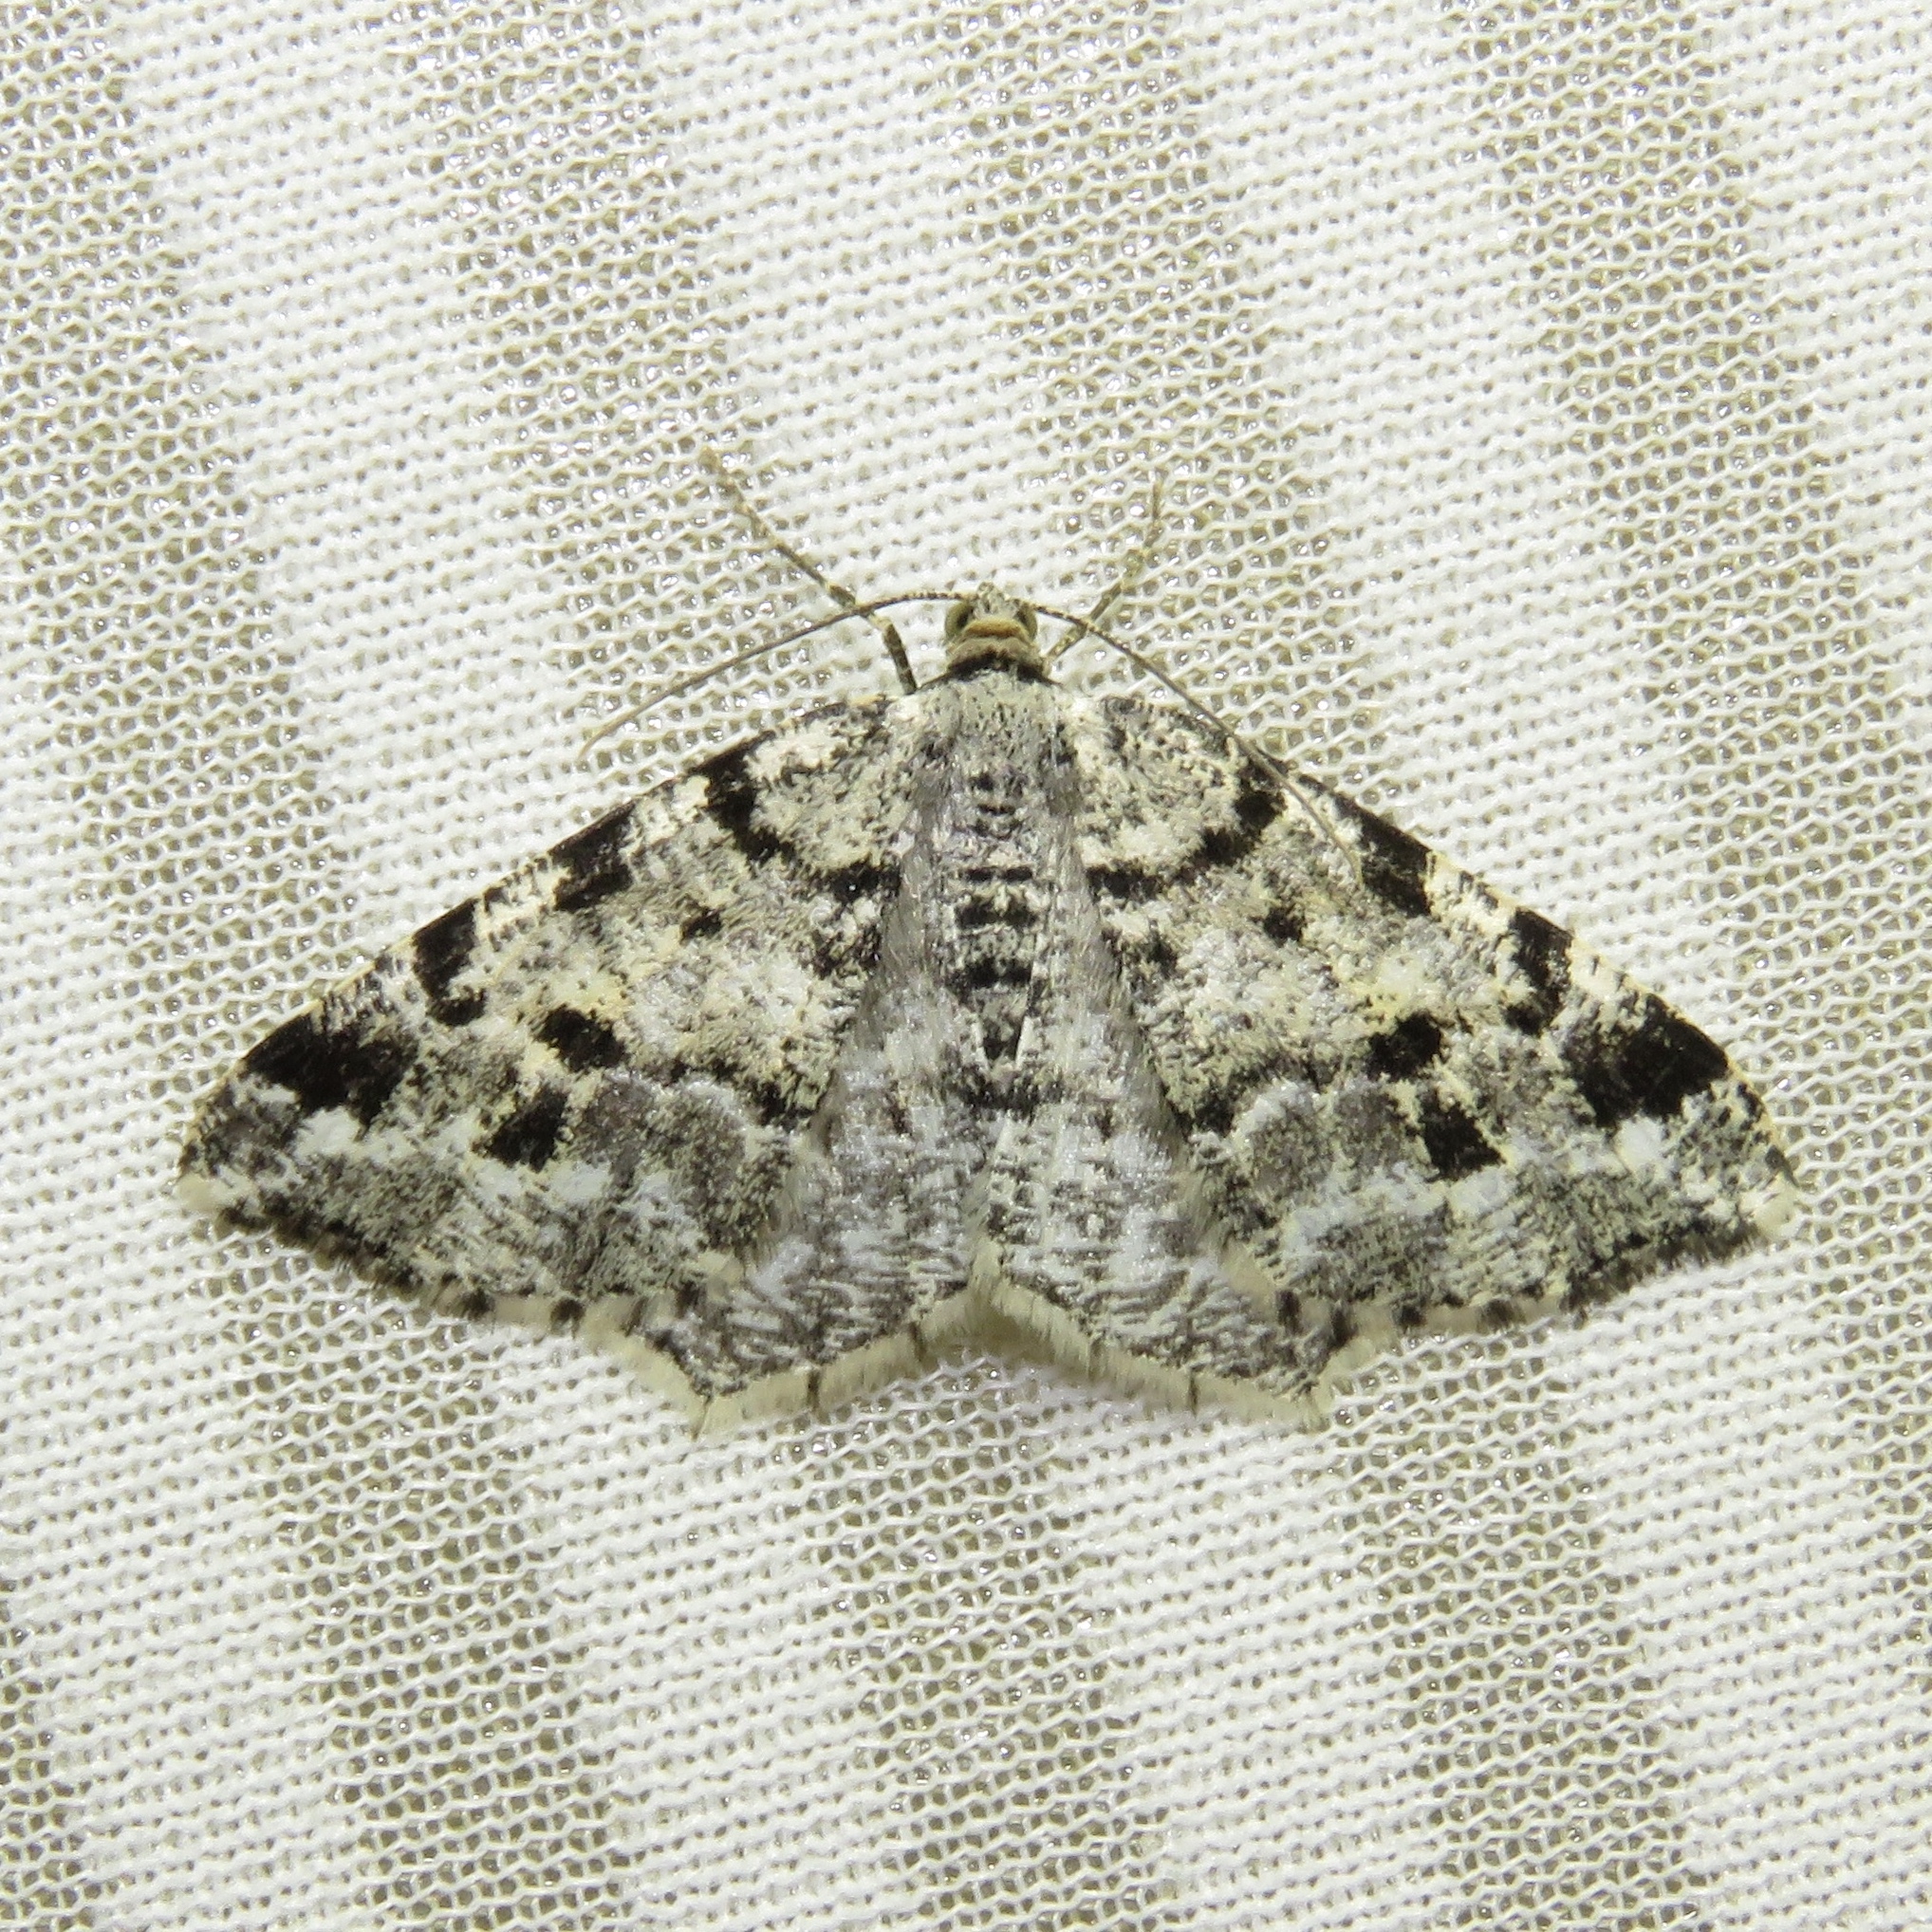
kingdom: Animalia
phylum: Arthropoda
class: Insecta
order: Lepidoptera
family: Geometridae
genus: Macaria
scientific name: Macaria oweni
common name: Owen's angle
